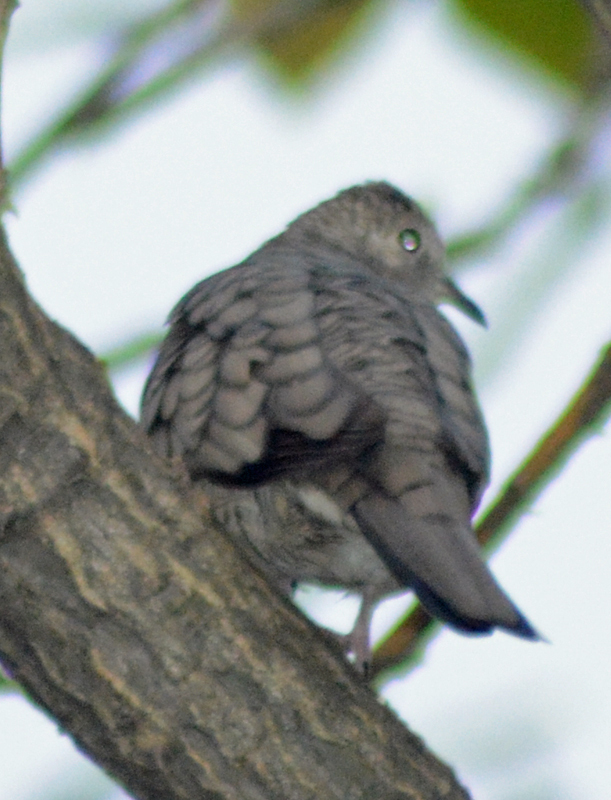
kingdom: Animalia
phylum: Chordata
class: Aves
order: Columbiformes
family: Columbidae
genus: Columbina
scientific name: Columbina inca
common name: Inca dove
